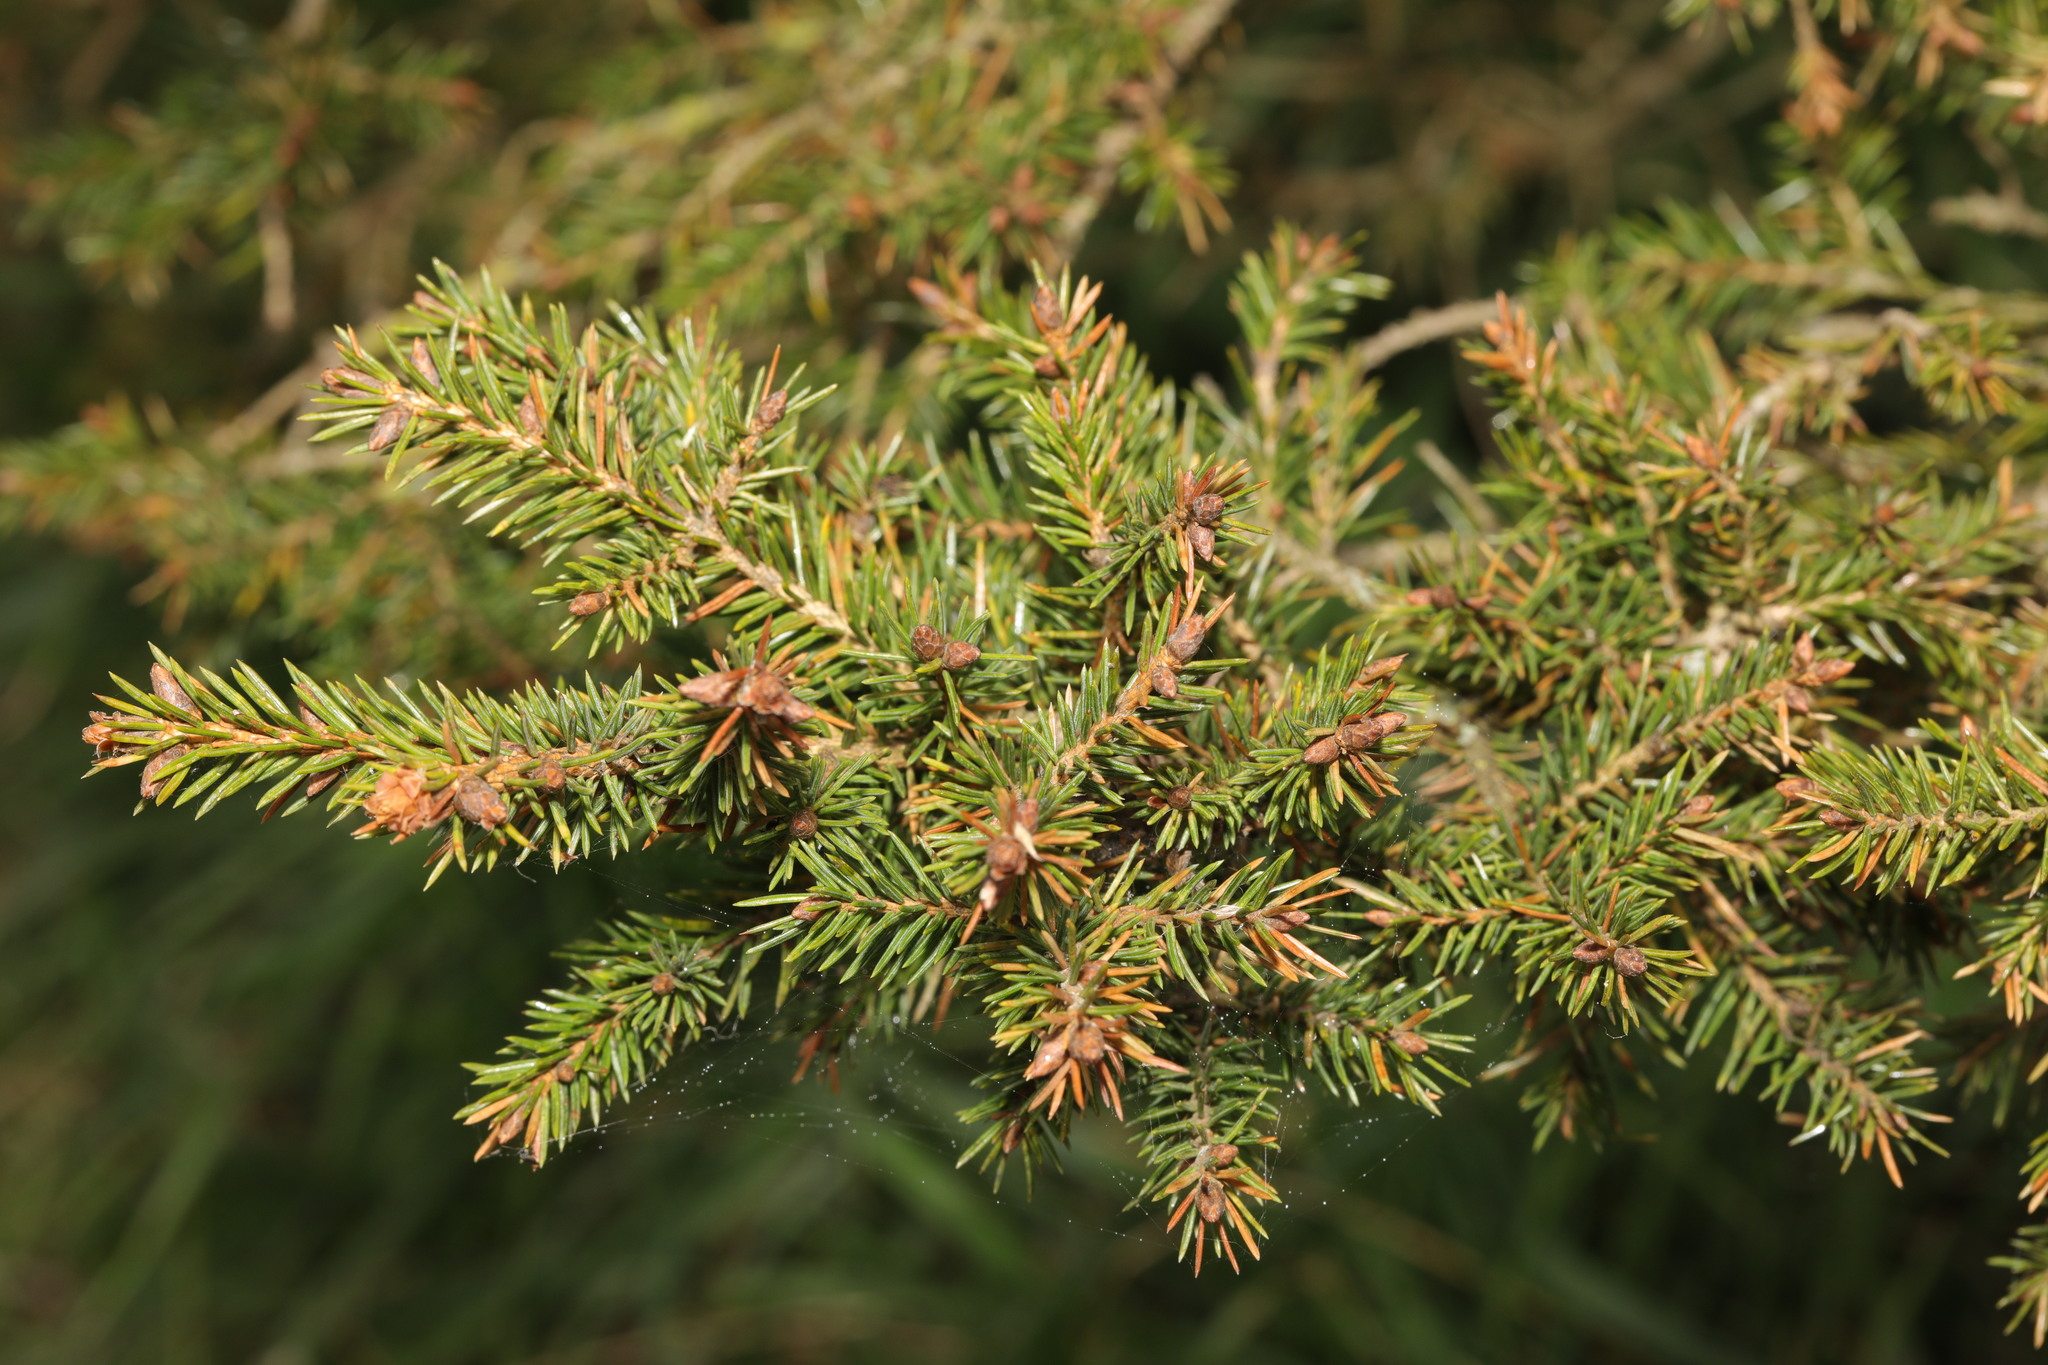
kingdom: Plantae
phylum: Tracheophyta
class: Pinopsida
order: Pinales
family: Pinaceae
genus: Picea
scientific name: Picea abies
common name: Norway spruce
